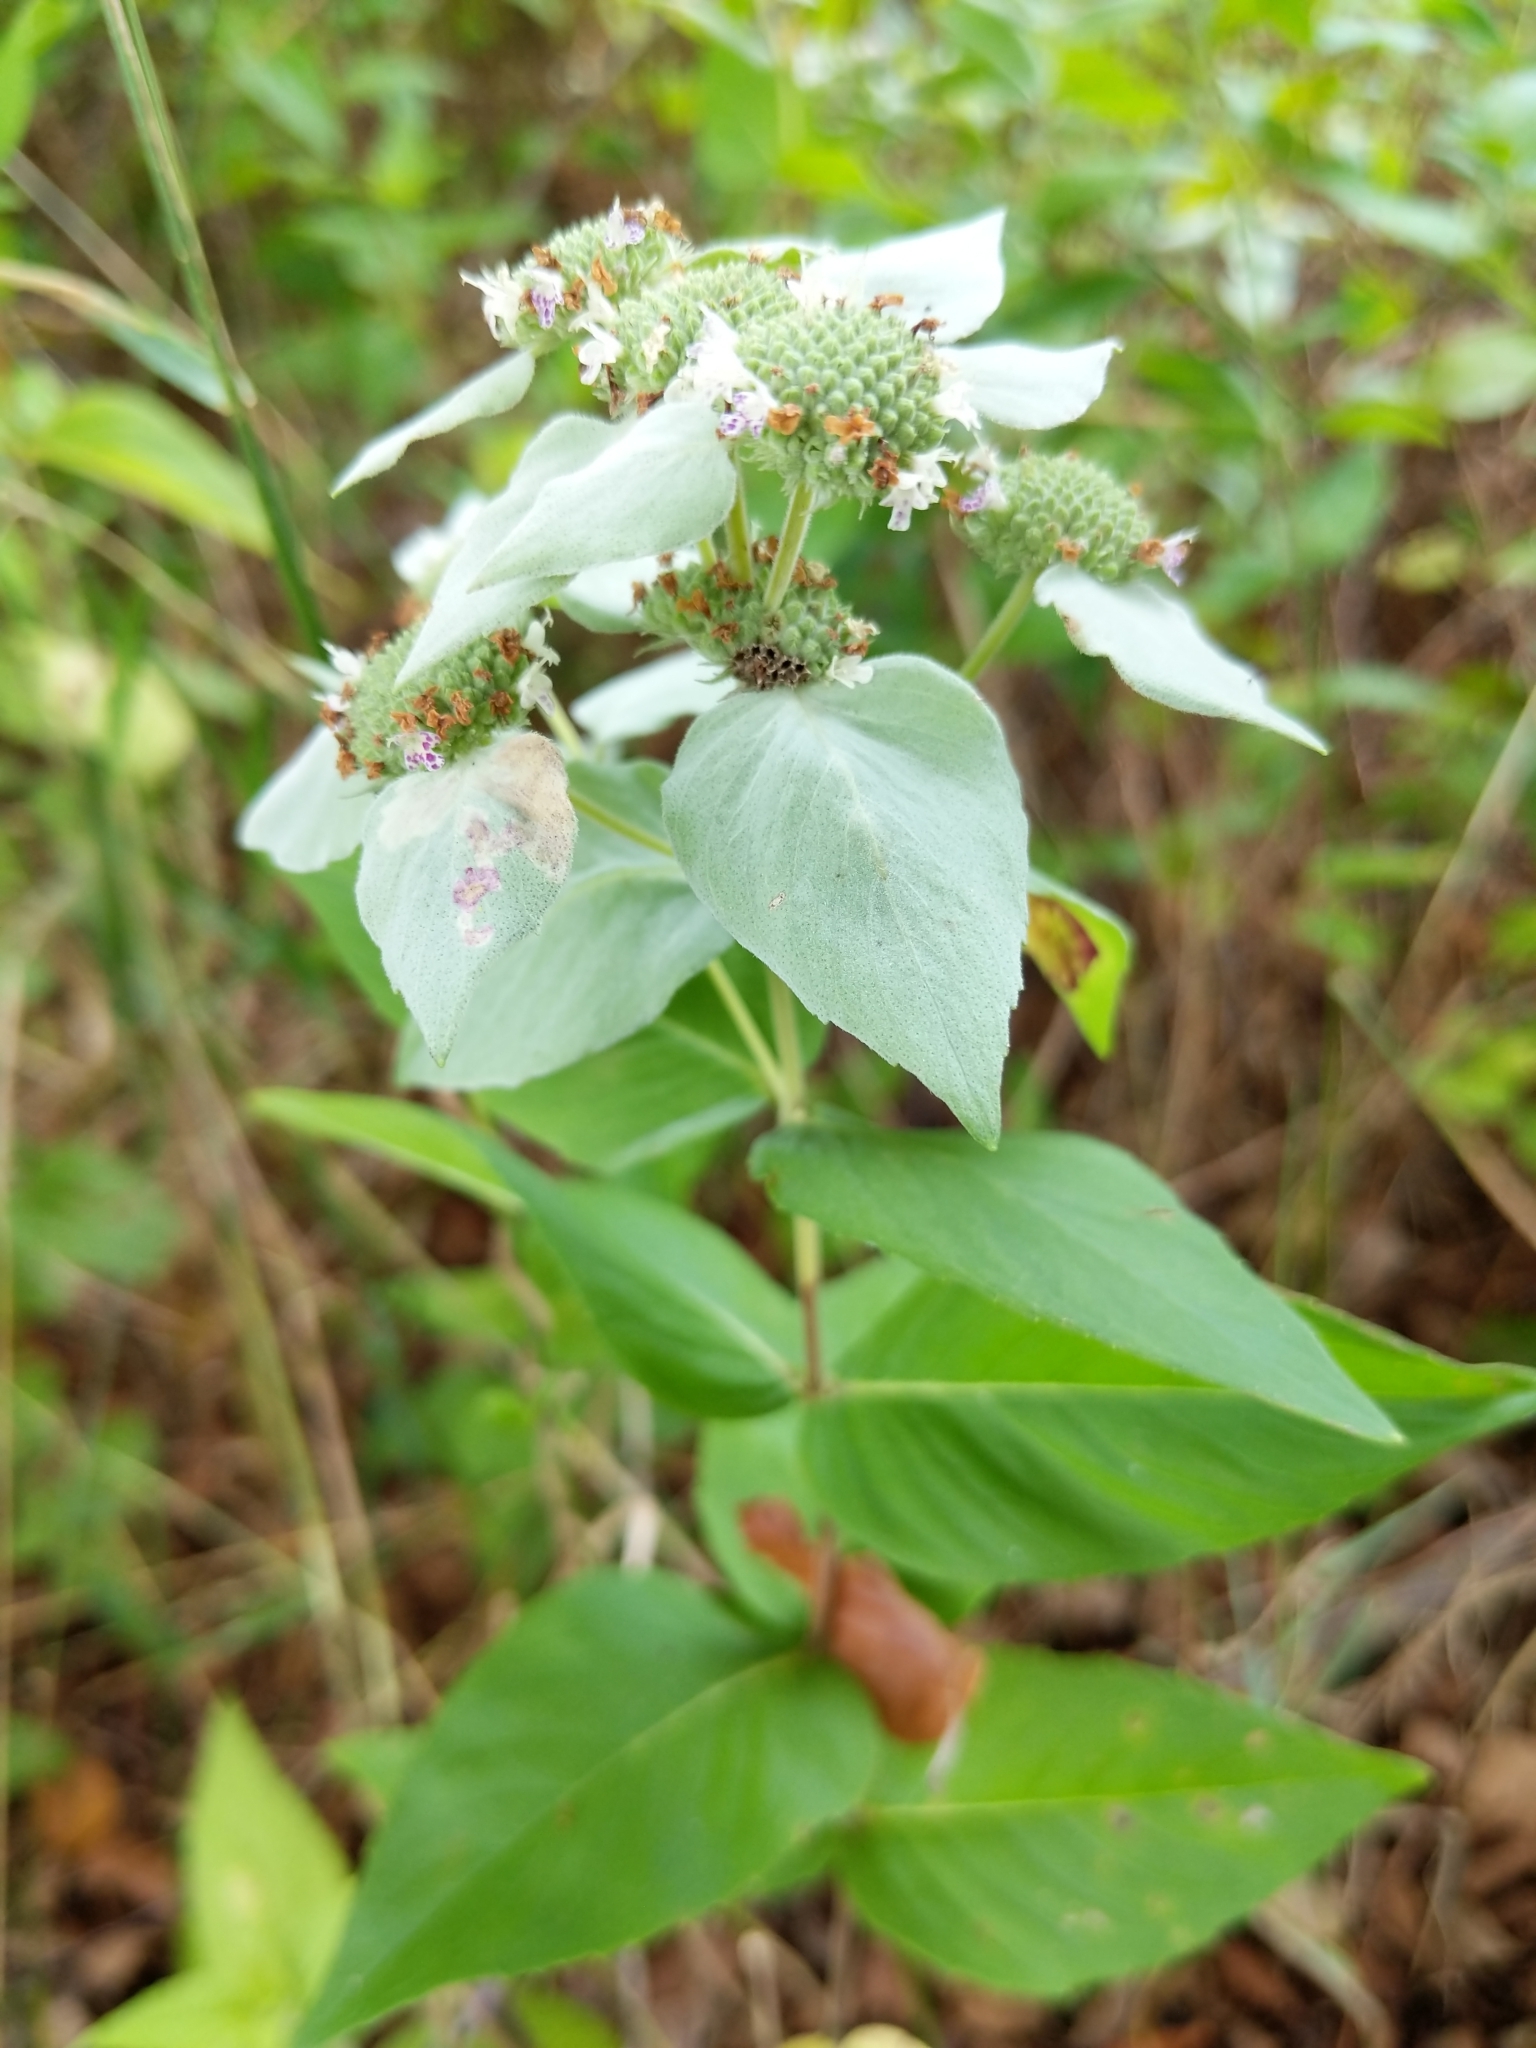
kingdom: Plantae
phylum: Tracheophyta
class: Magnoliopsida
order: Lamiales
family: Lamiaceae
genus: Pycnanthemum
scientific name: Pycnanthemum muticum
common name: Blunt mountain-mint
